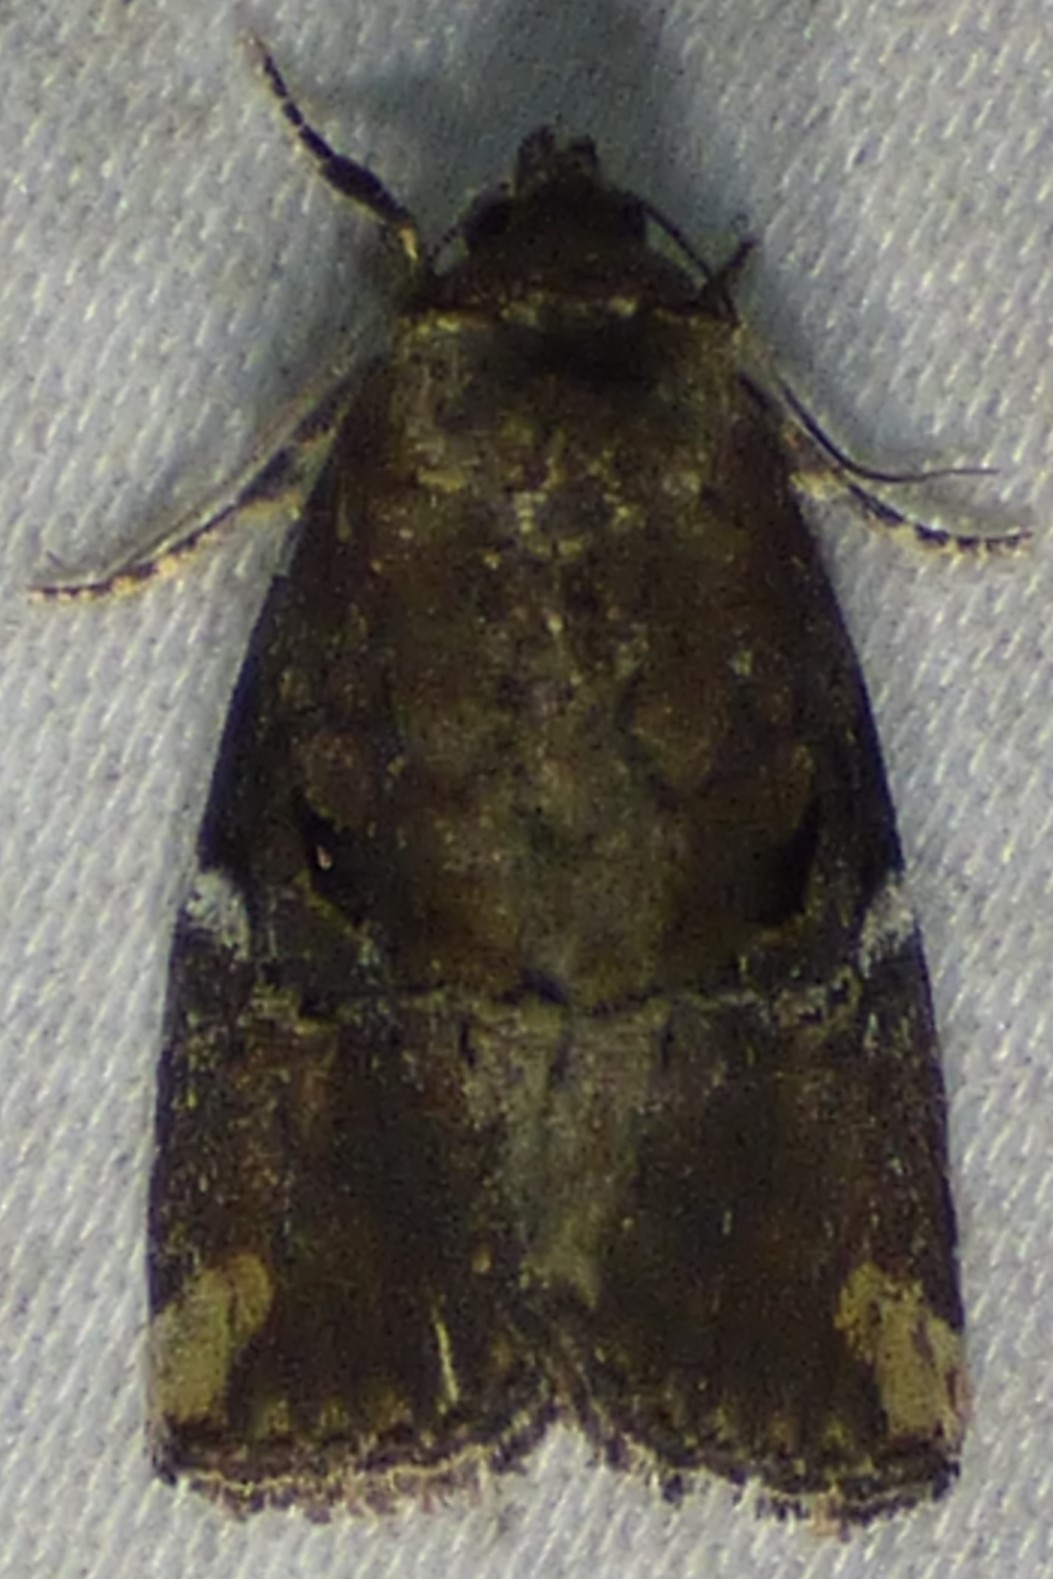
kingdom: Animalia
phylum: Arthropoda
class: Insecta
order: Lepidoptera
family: Noctuidae
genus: Elaphria
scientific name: Elaphria versicolor
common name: Fir harlequin
